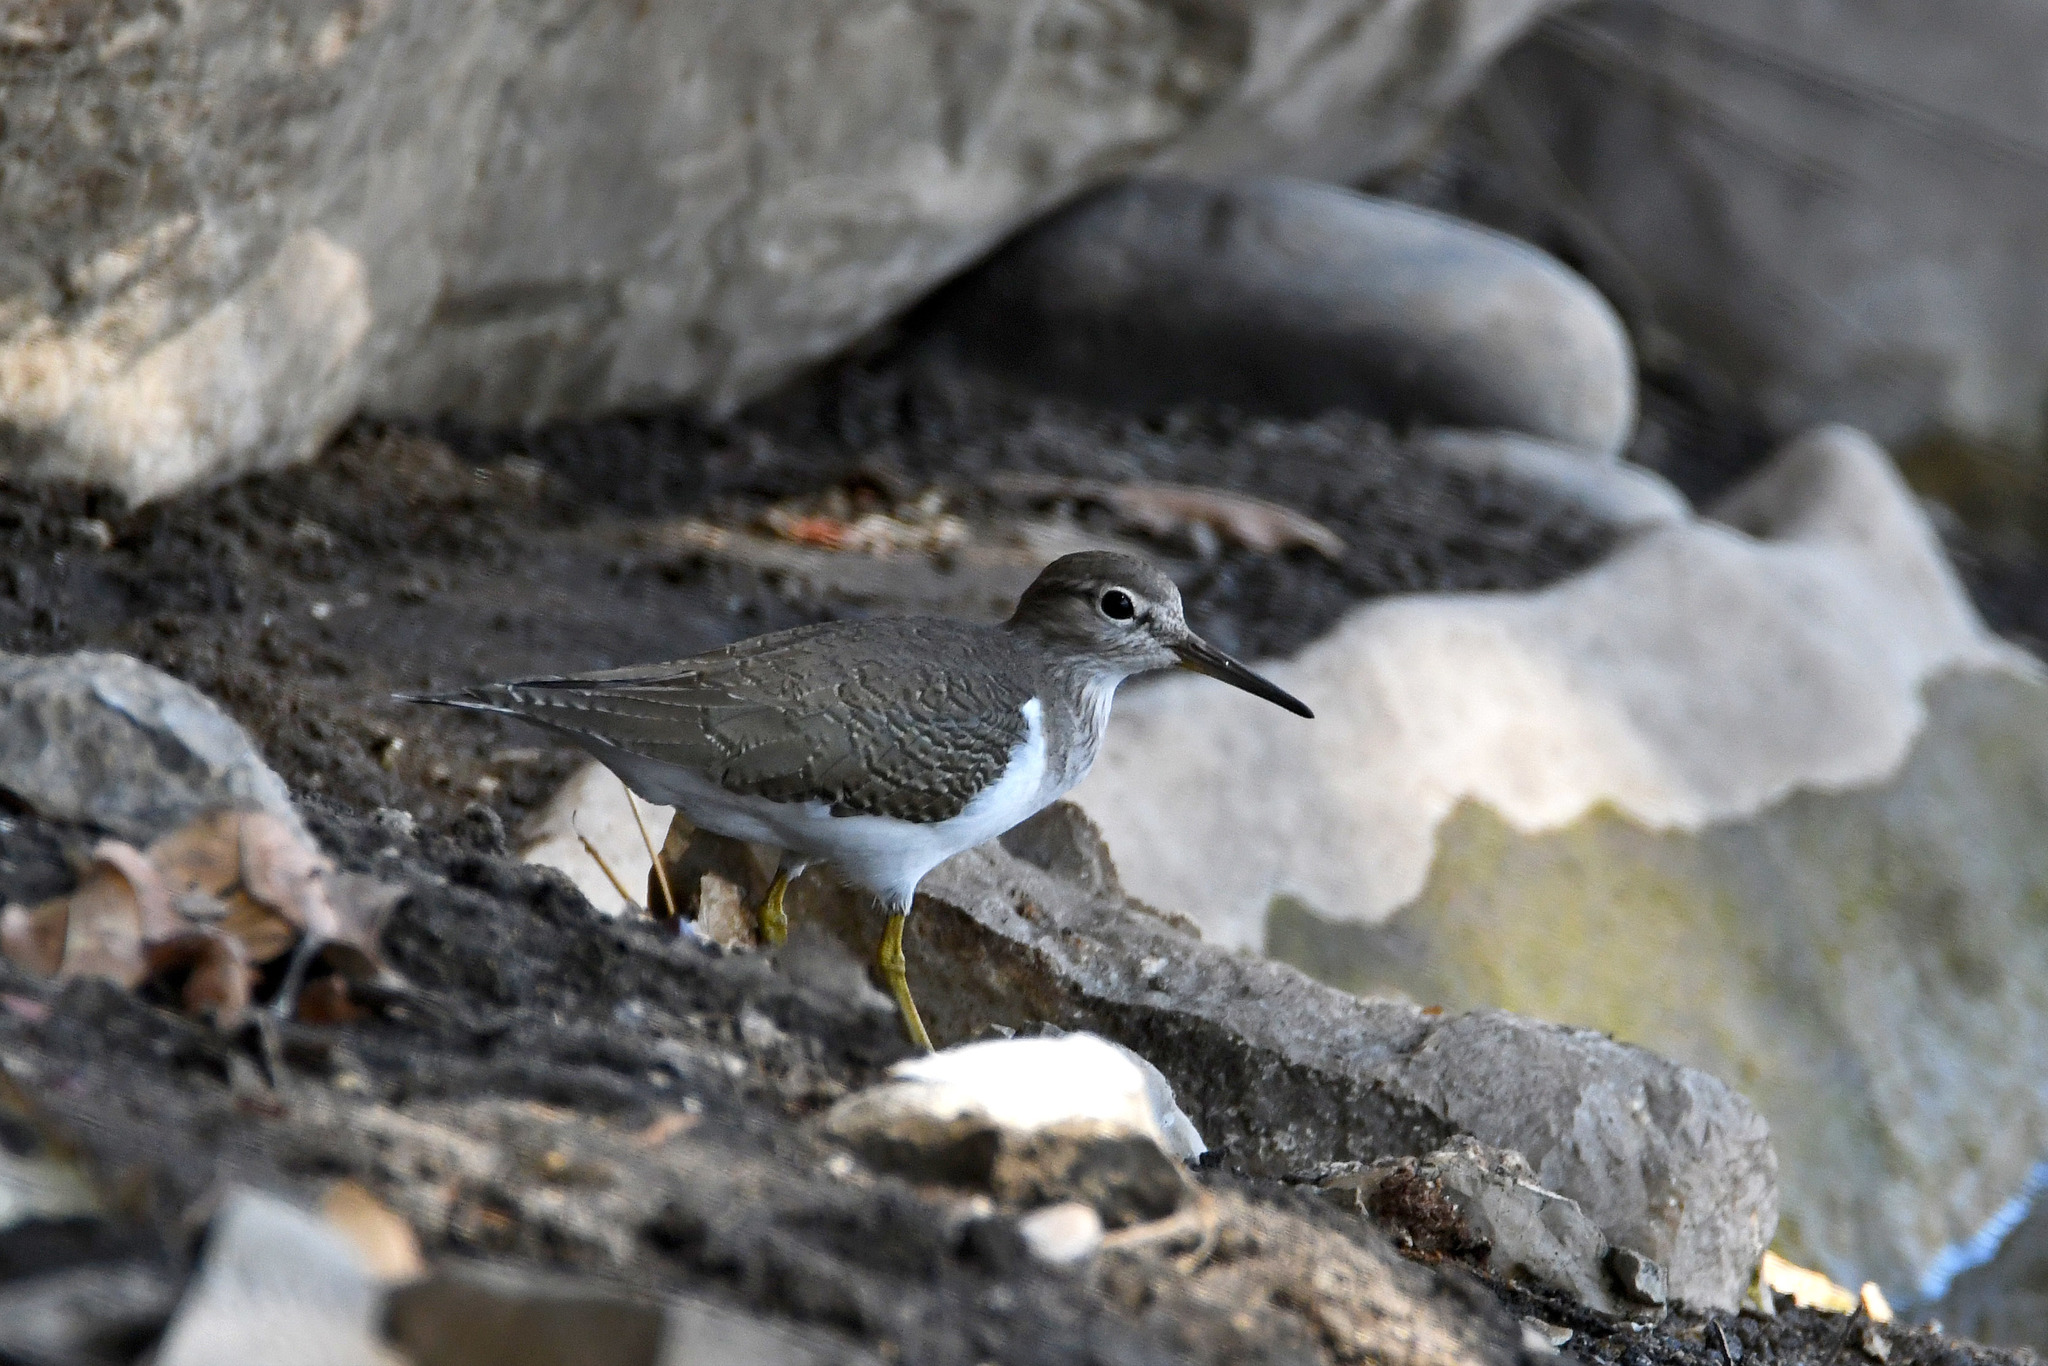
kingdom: Animalia
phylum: Chordata
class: Aves
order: Charadriiformes
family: Scolopacidae
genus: Actitis
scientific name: Actitis hypoleucos
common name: Common sandpiper
